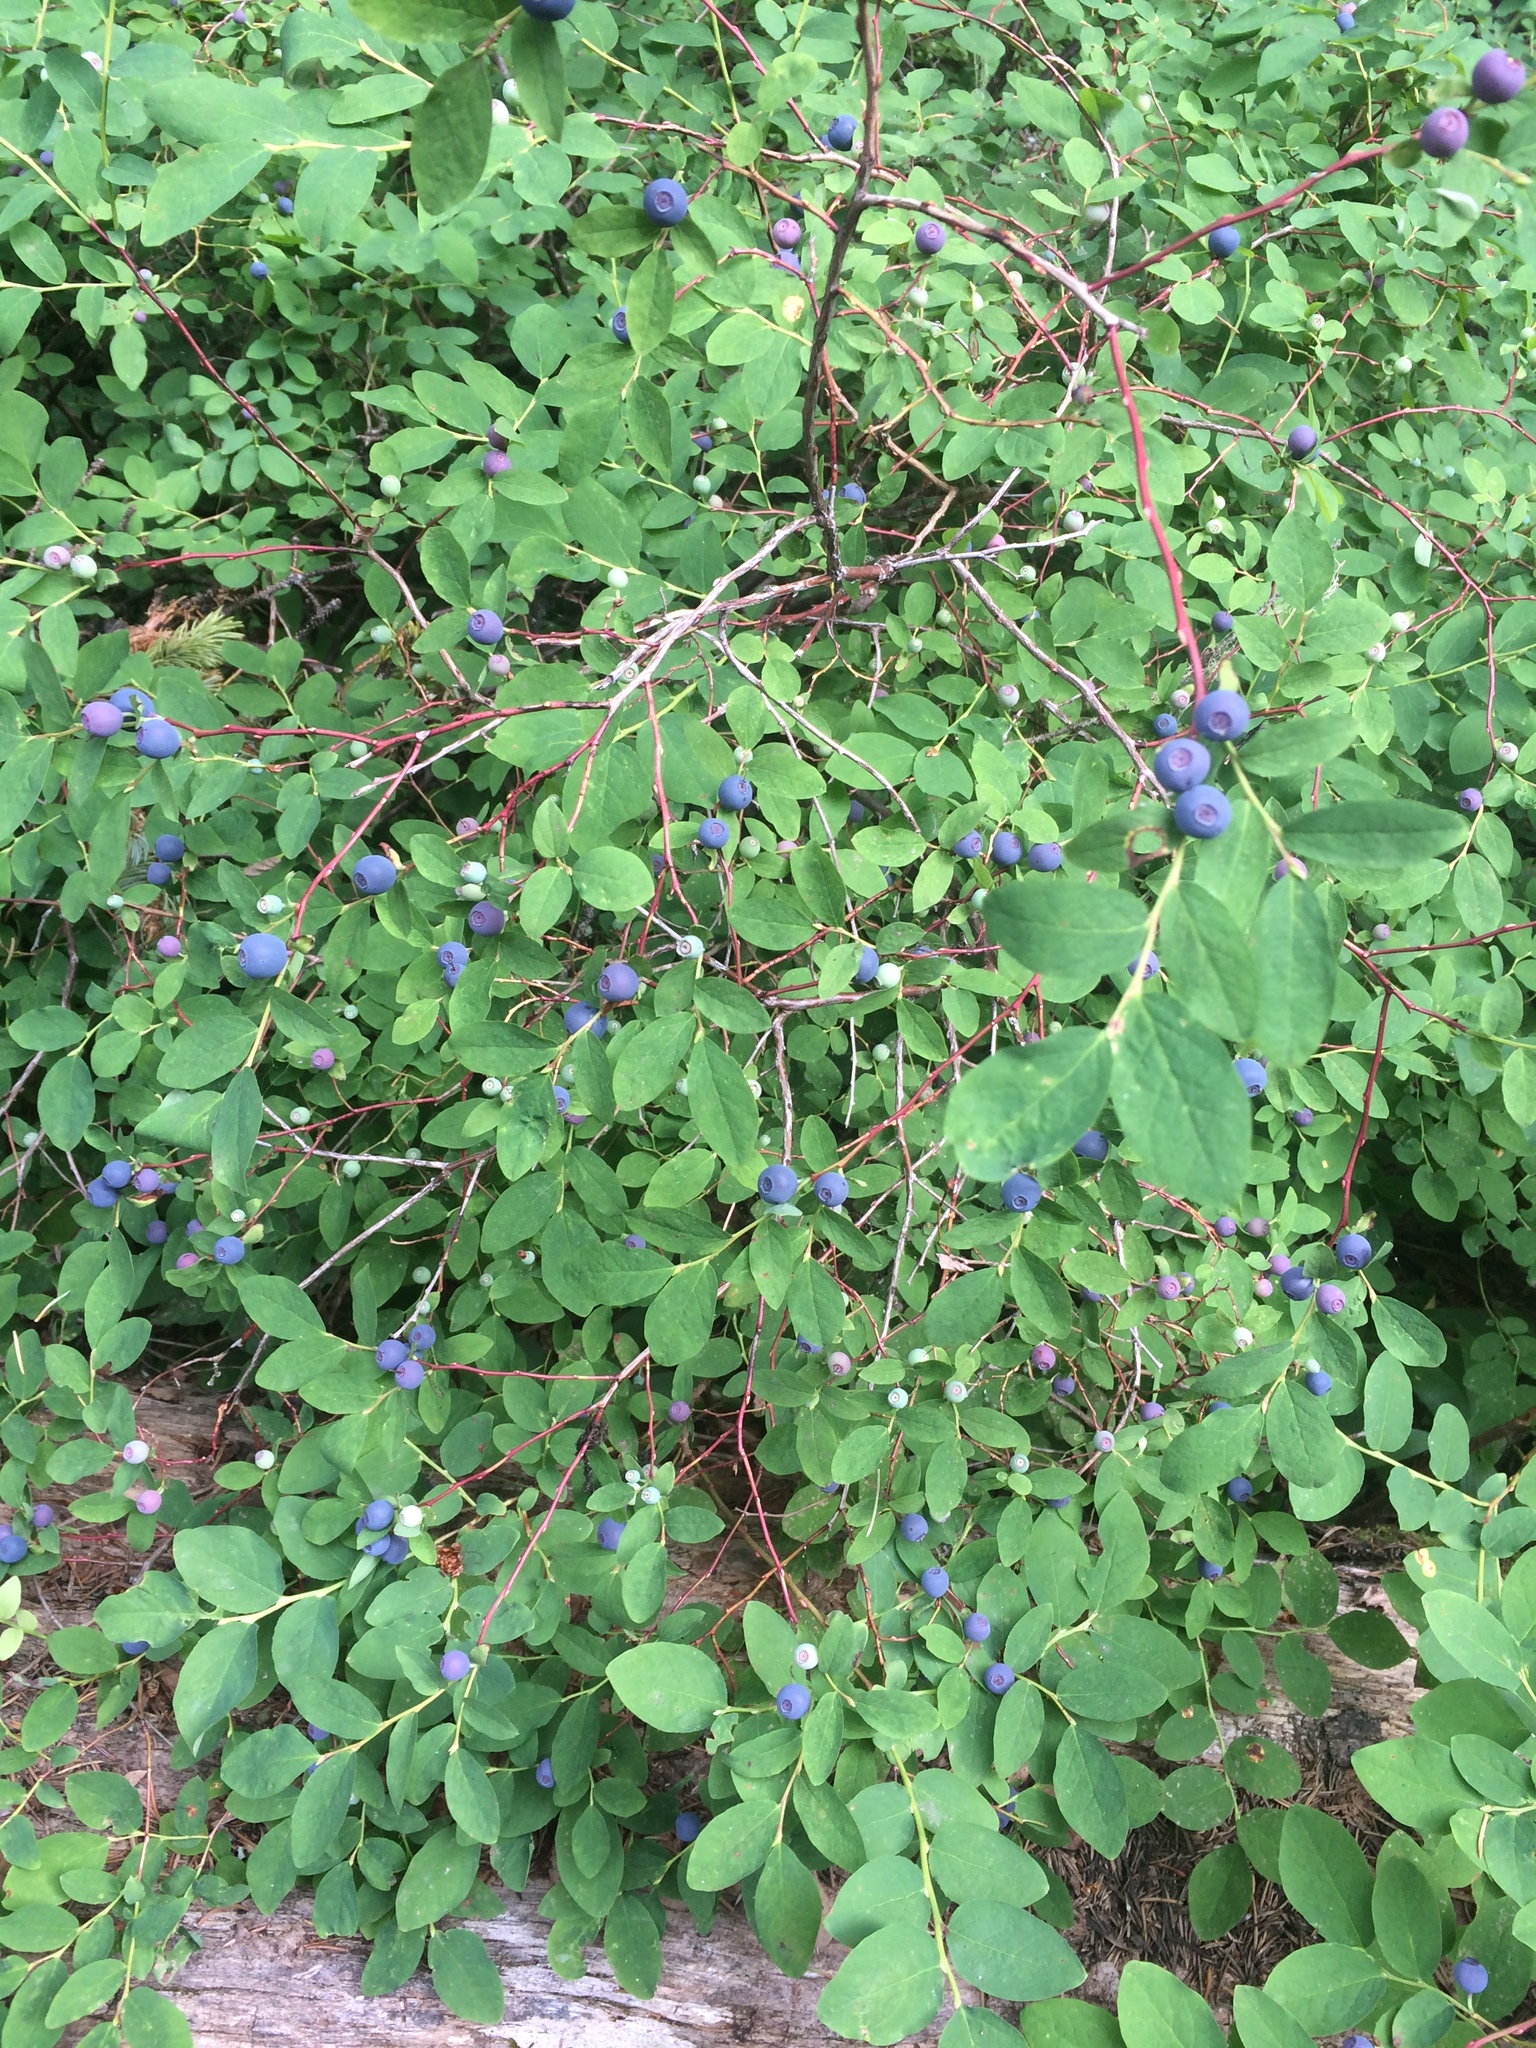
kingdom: Plantae
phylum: Tracheophyta
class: Magnoliopsida
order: Ericales
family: Ericaceae
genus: Vaccinium
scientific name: Vaccinium ovalifolium
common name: Early blueberry
